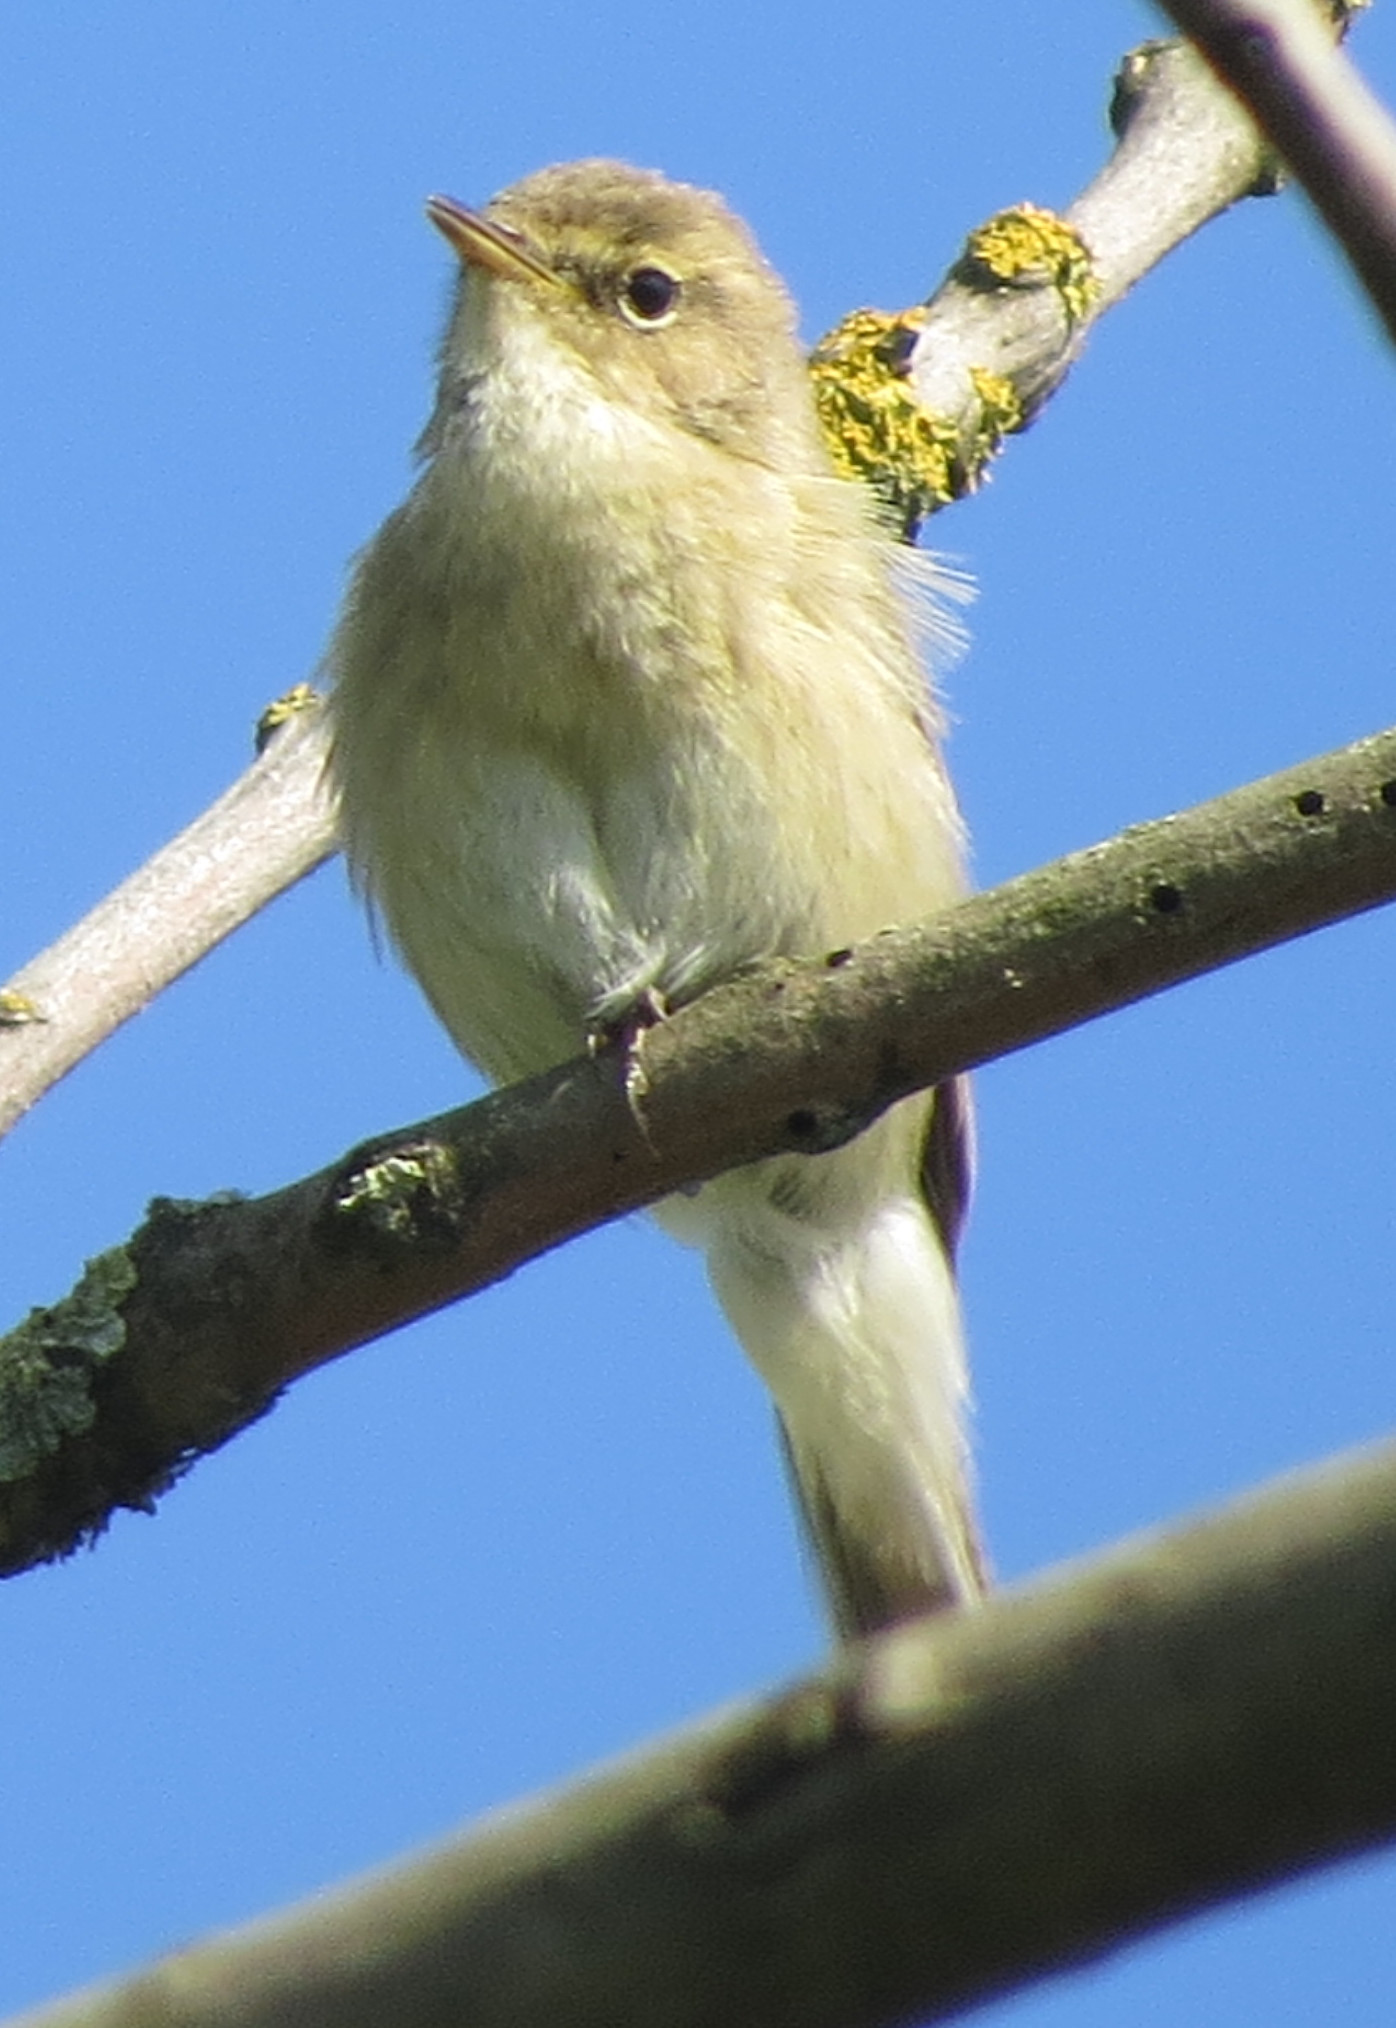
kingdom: Animalia
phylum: Chordata
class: Aves
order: Passeriformes
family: Phylloscopidae
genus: Phylloscopus
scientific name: Phylloscopus collybita
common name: Common chiffchaff
